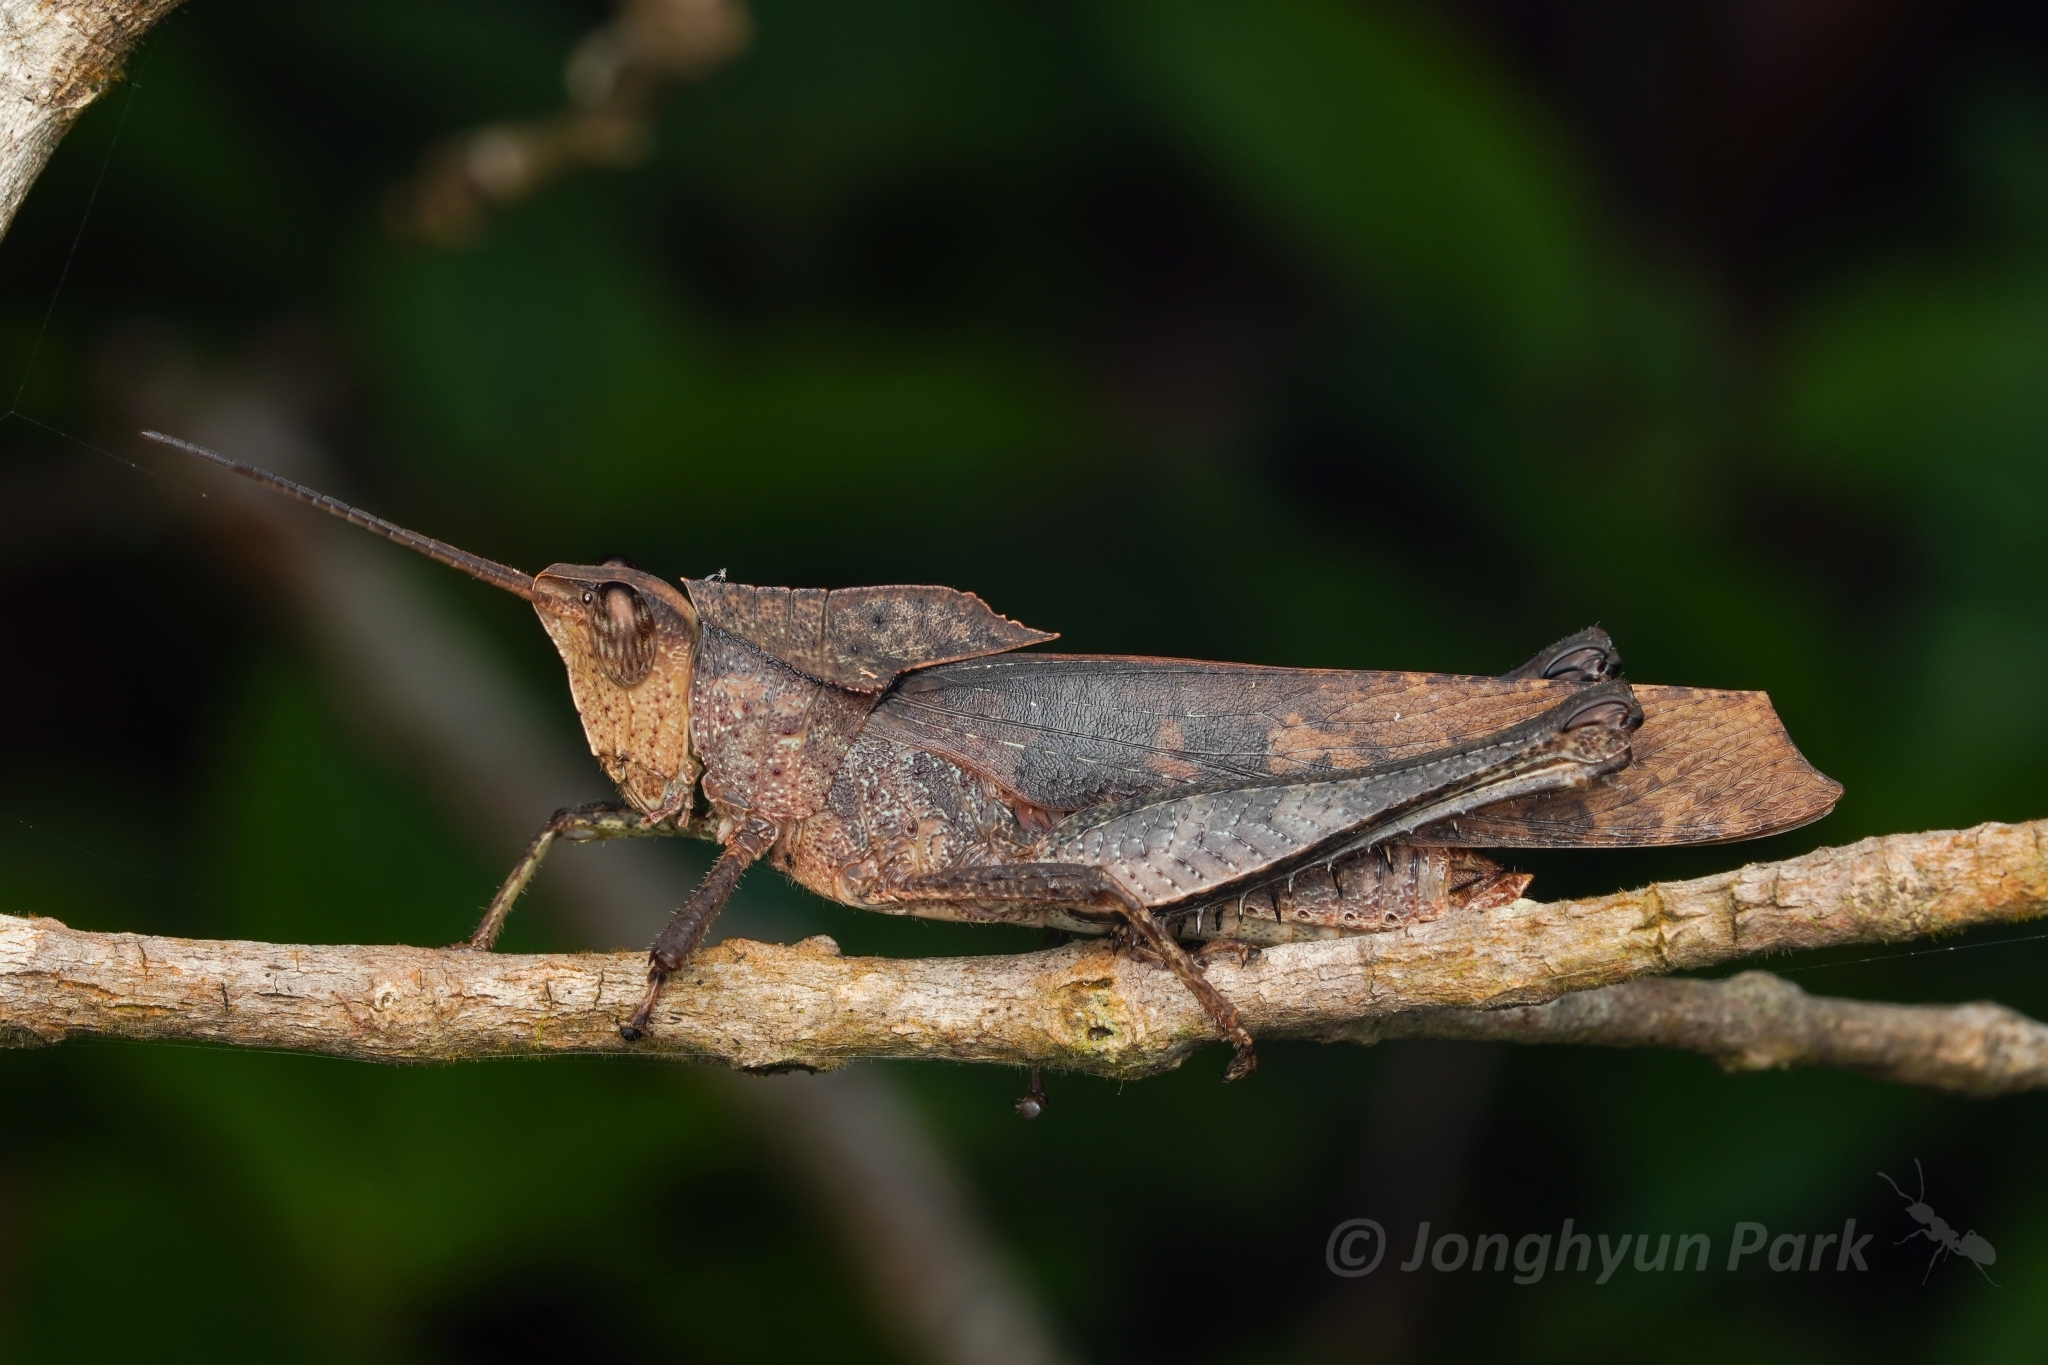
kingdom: Animalia
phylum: Arthropoda
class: Insecta
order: Orthoptera
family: Romaleidae
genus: Colpolopha
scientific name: Colpolopha obsoleta
